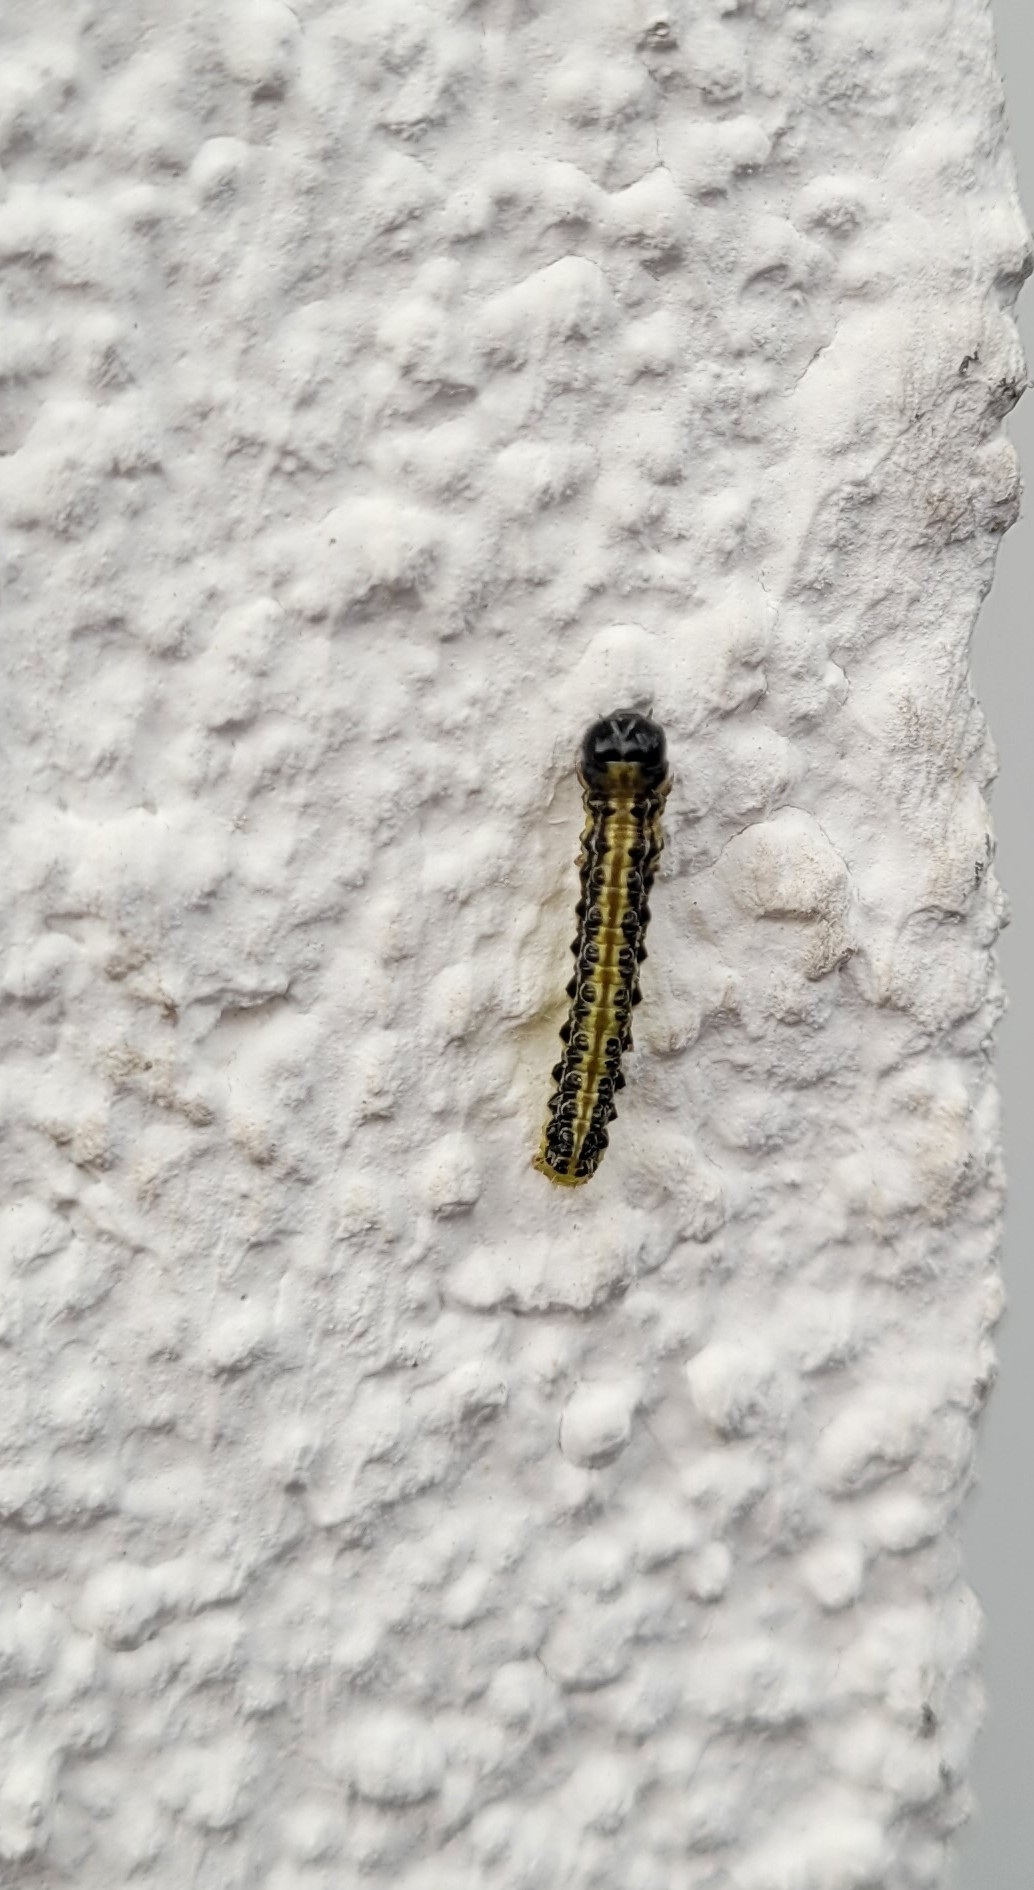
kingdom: Animalia
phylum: Arthropoda
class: Insecta
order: Lepidoptera
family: Crambidae
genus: Cydalima
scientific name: Cydalima perspectalis
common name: Box tree moth
